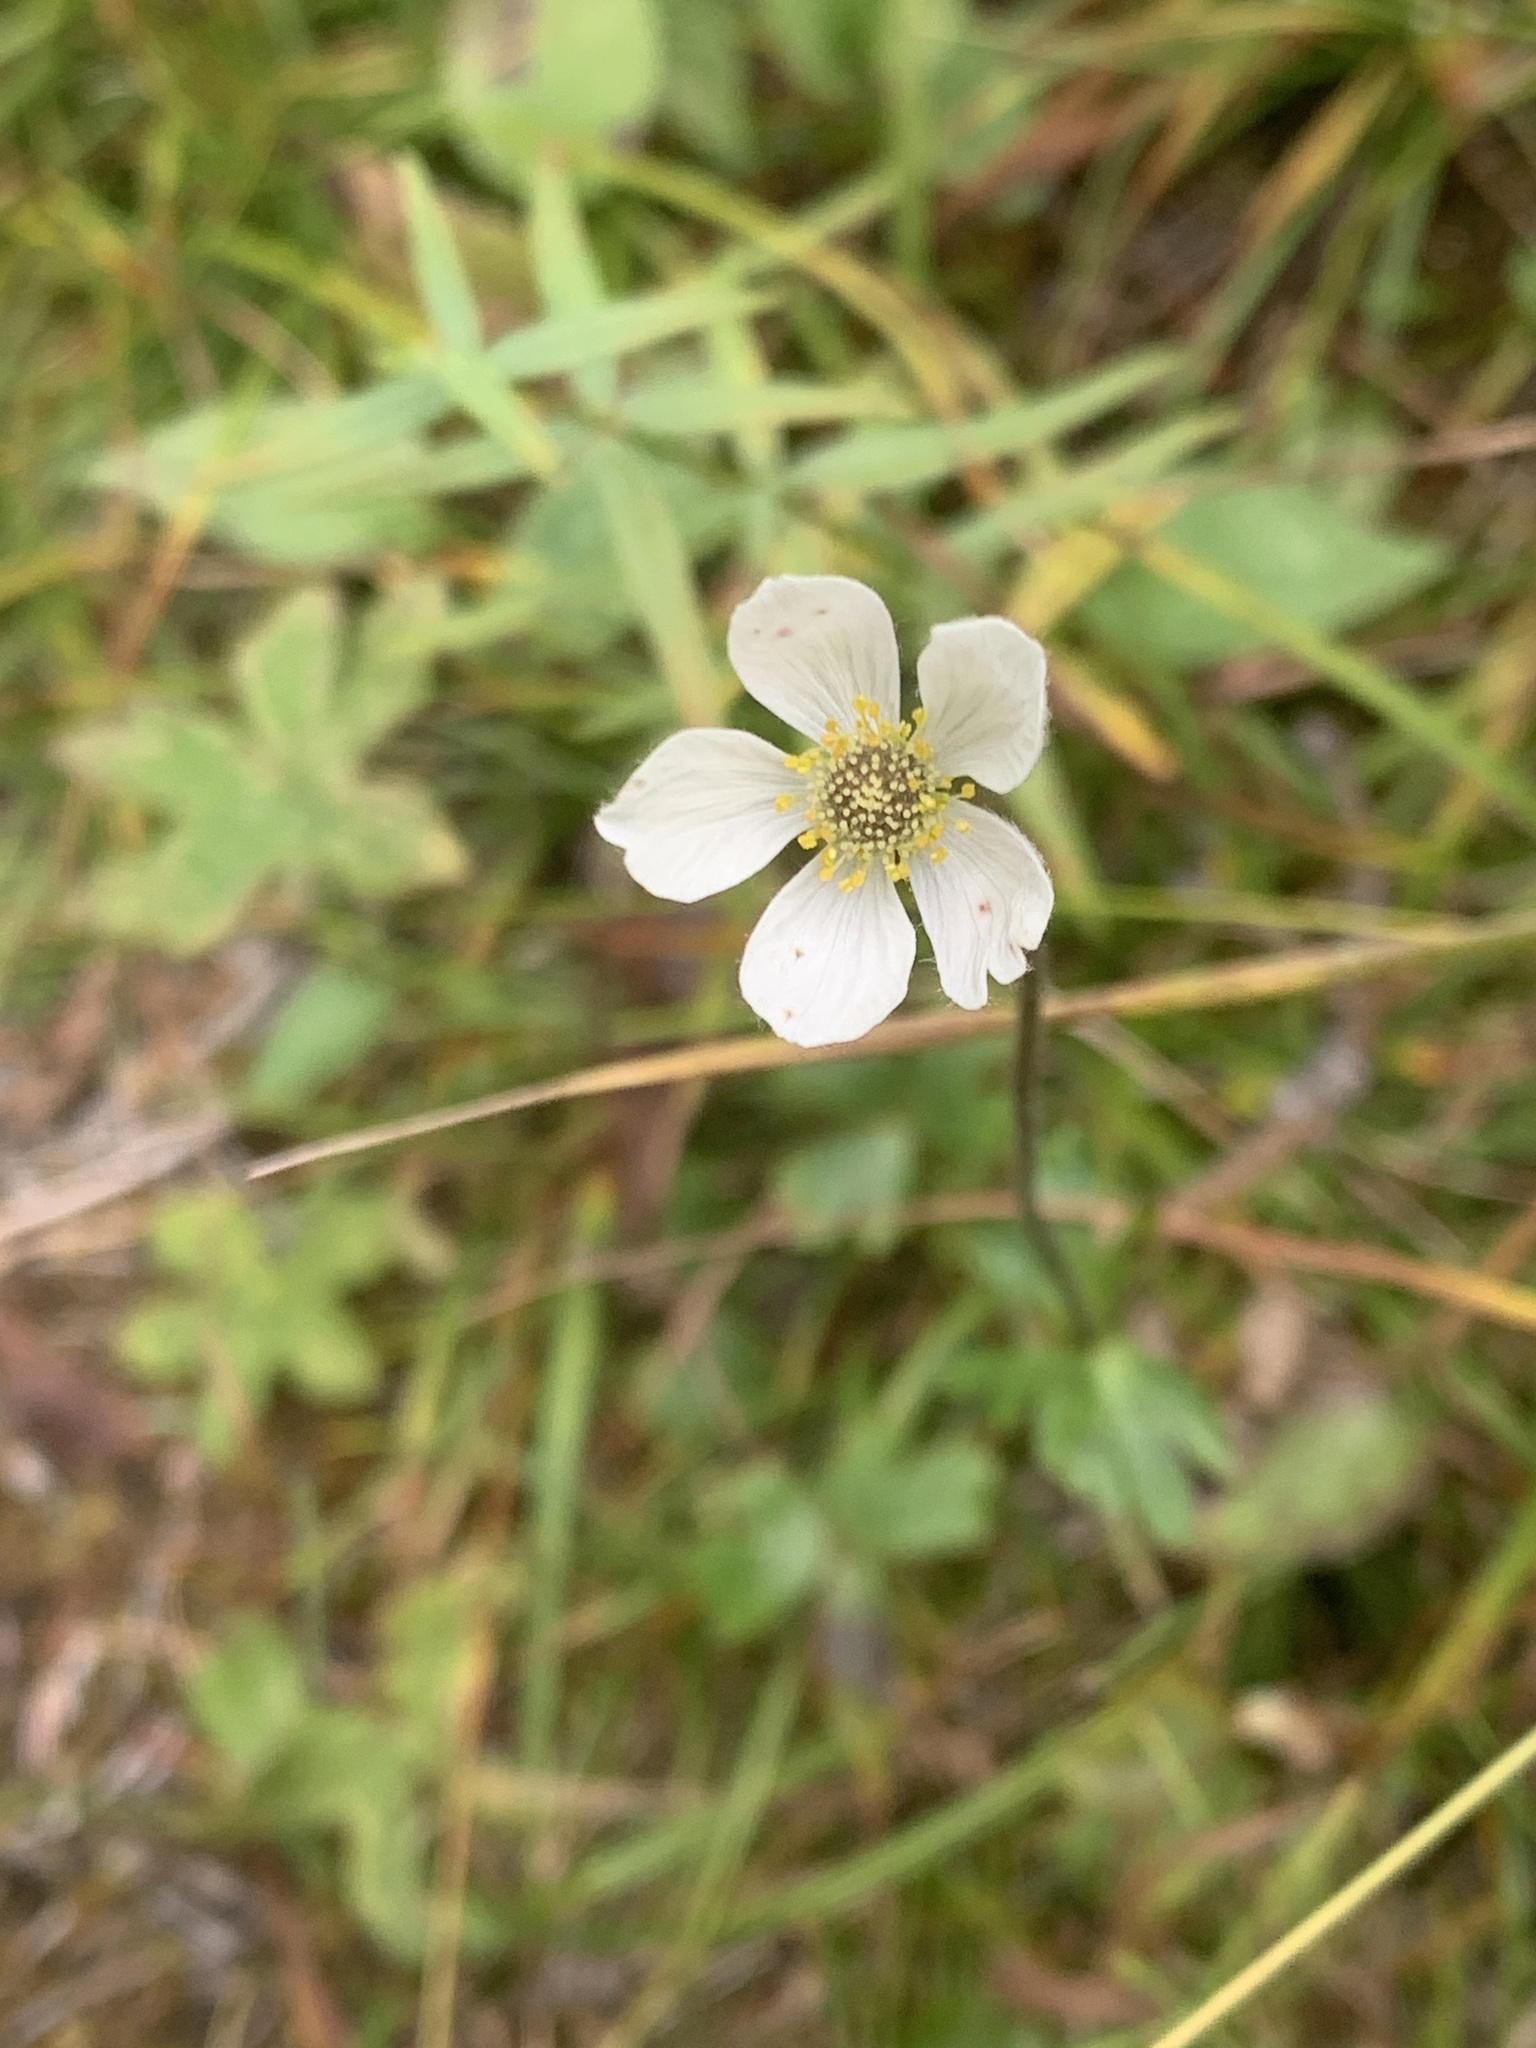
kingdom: Plantae
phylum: Tracheophyta
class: Magnoliopsida
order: Ranunculales
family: Ranunculaceae
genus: Anemone
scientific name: Anemone parviflora
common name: Northern anemone
